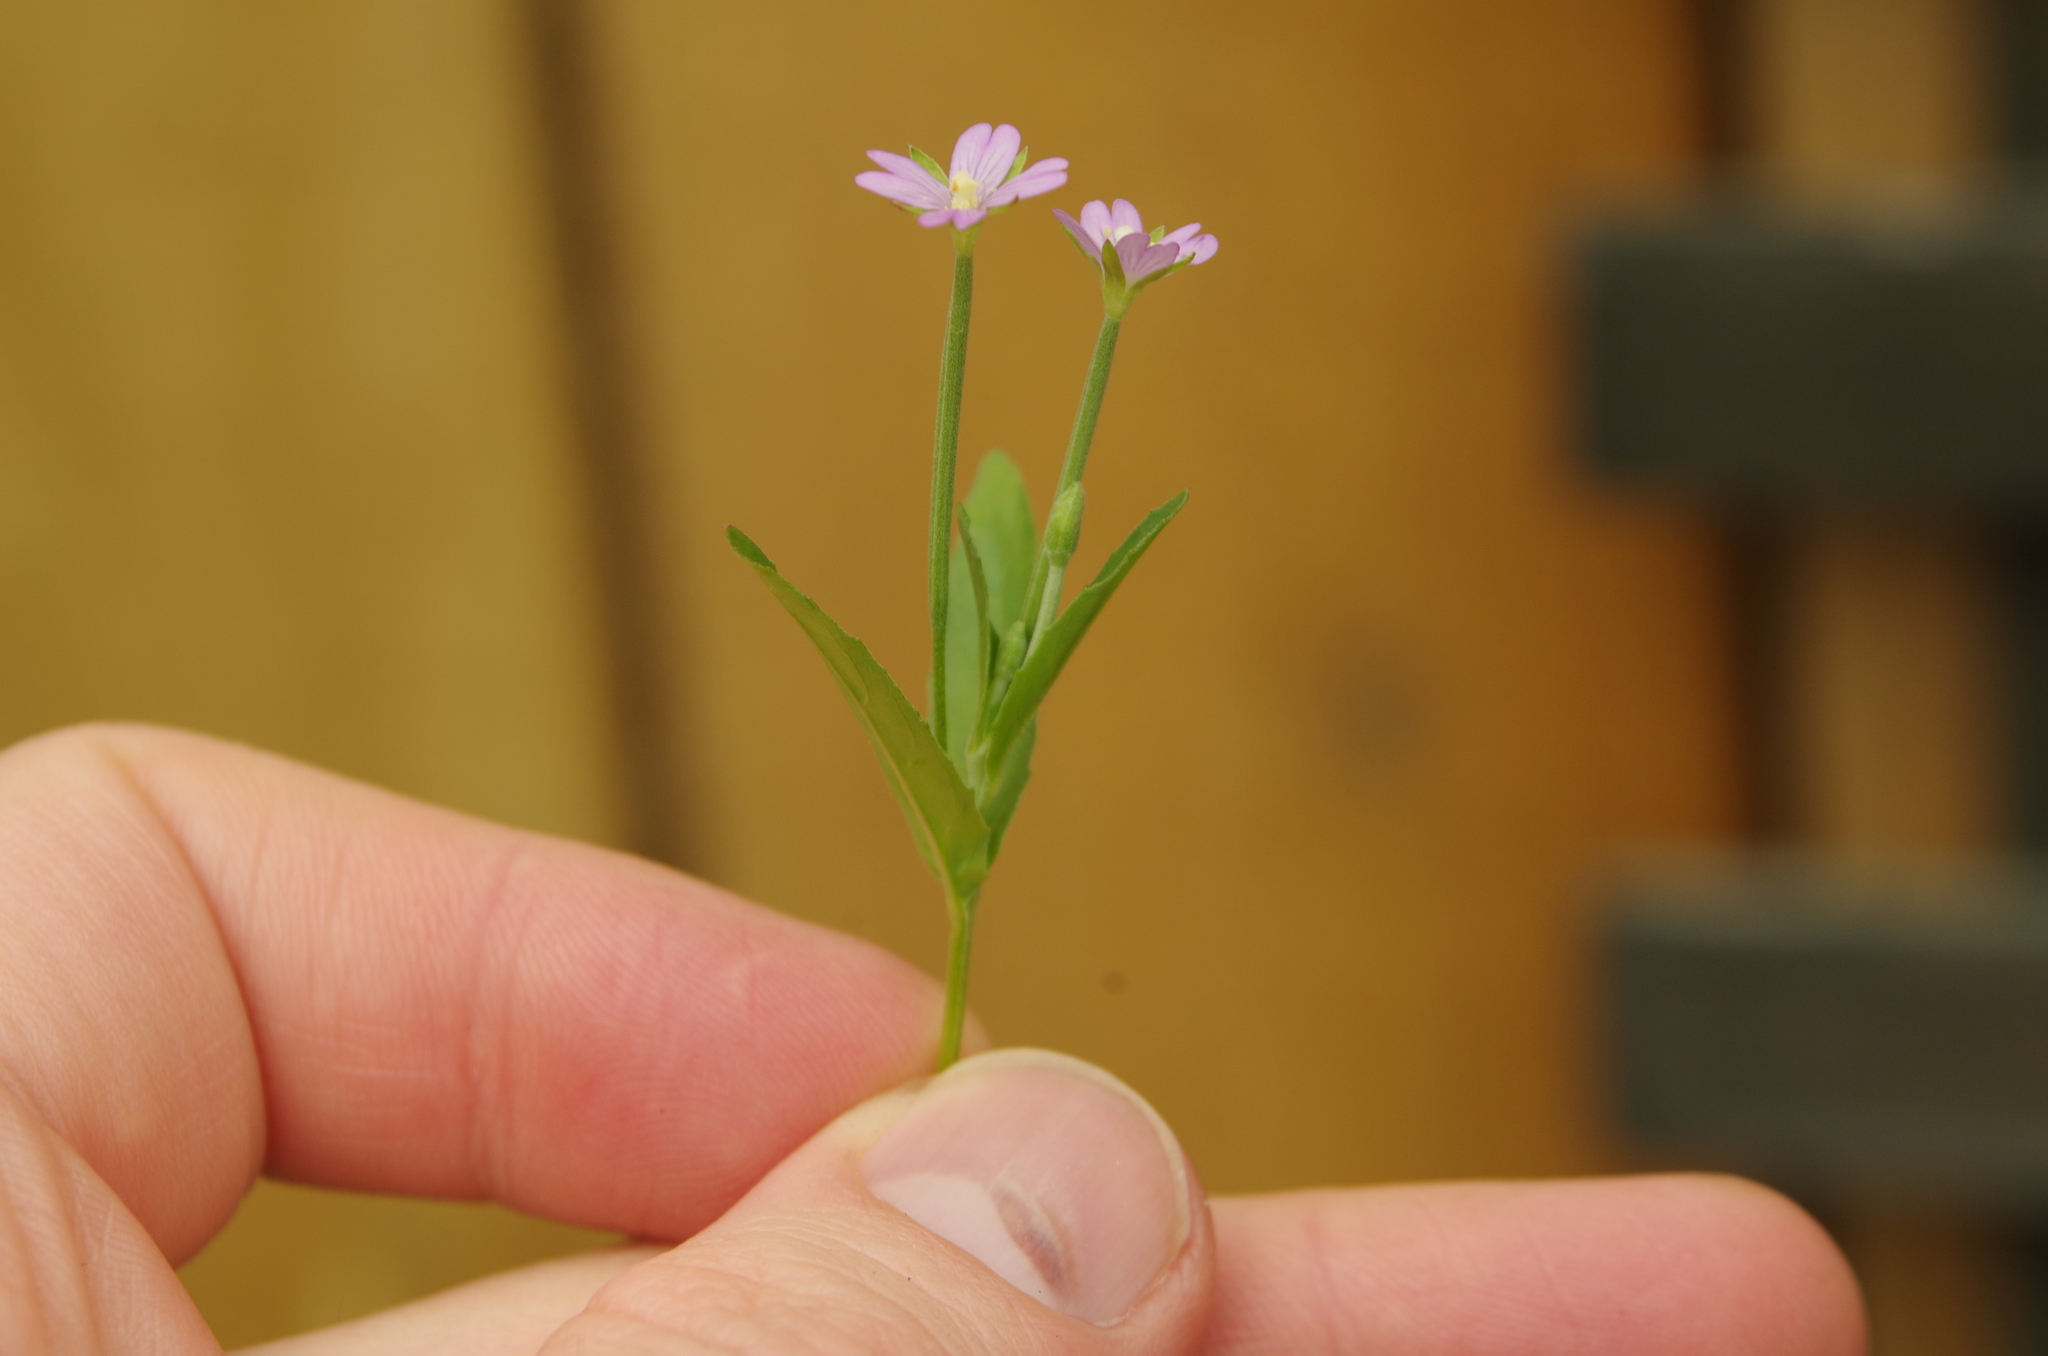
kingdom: Plantae
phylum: Tracheophyta
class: Magnoliopsida
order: Myrtales
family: Onagraceae
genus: Epilobium
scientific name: Epilobium obscurum
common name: Short-fruited willowherb
